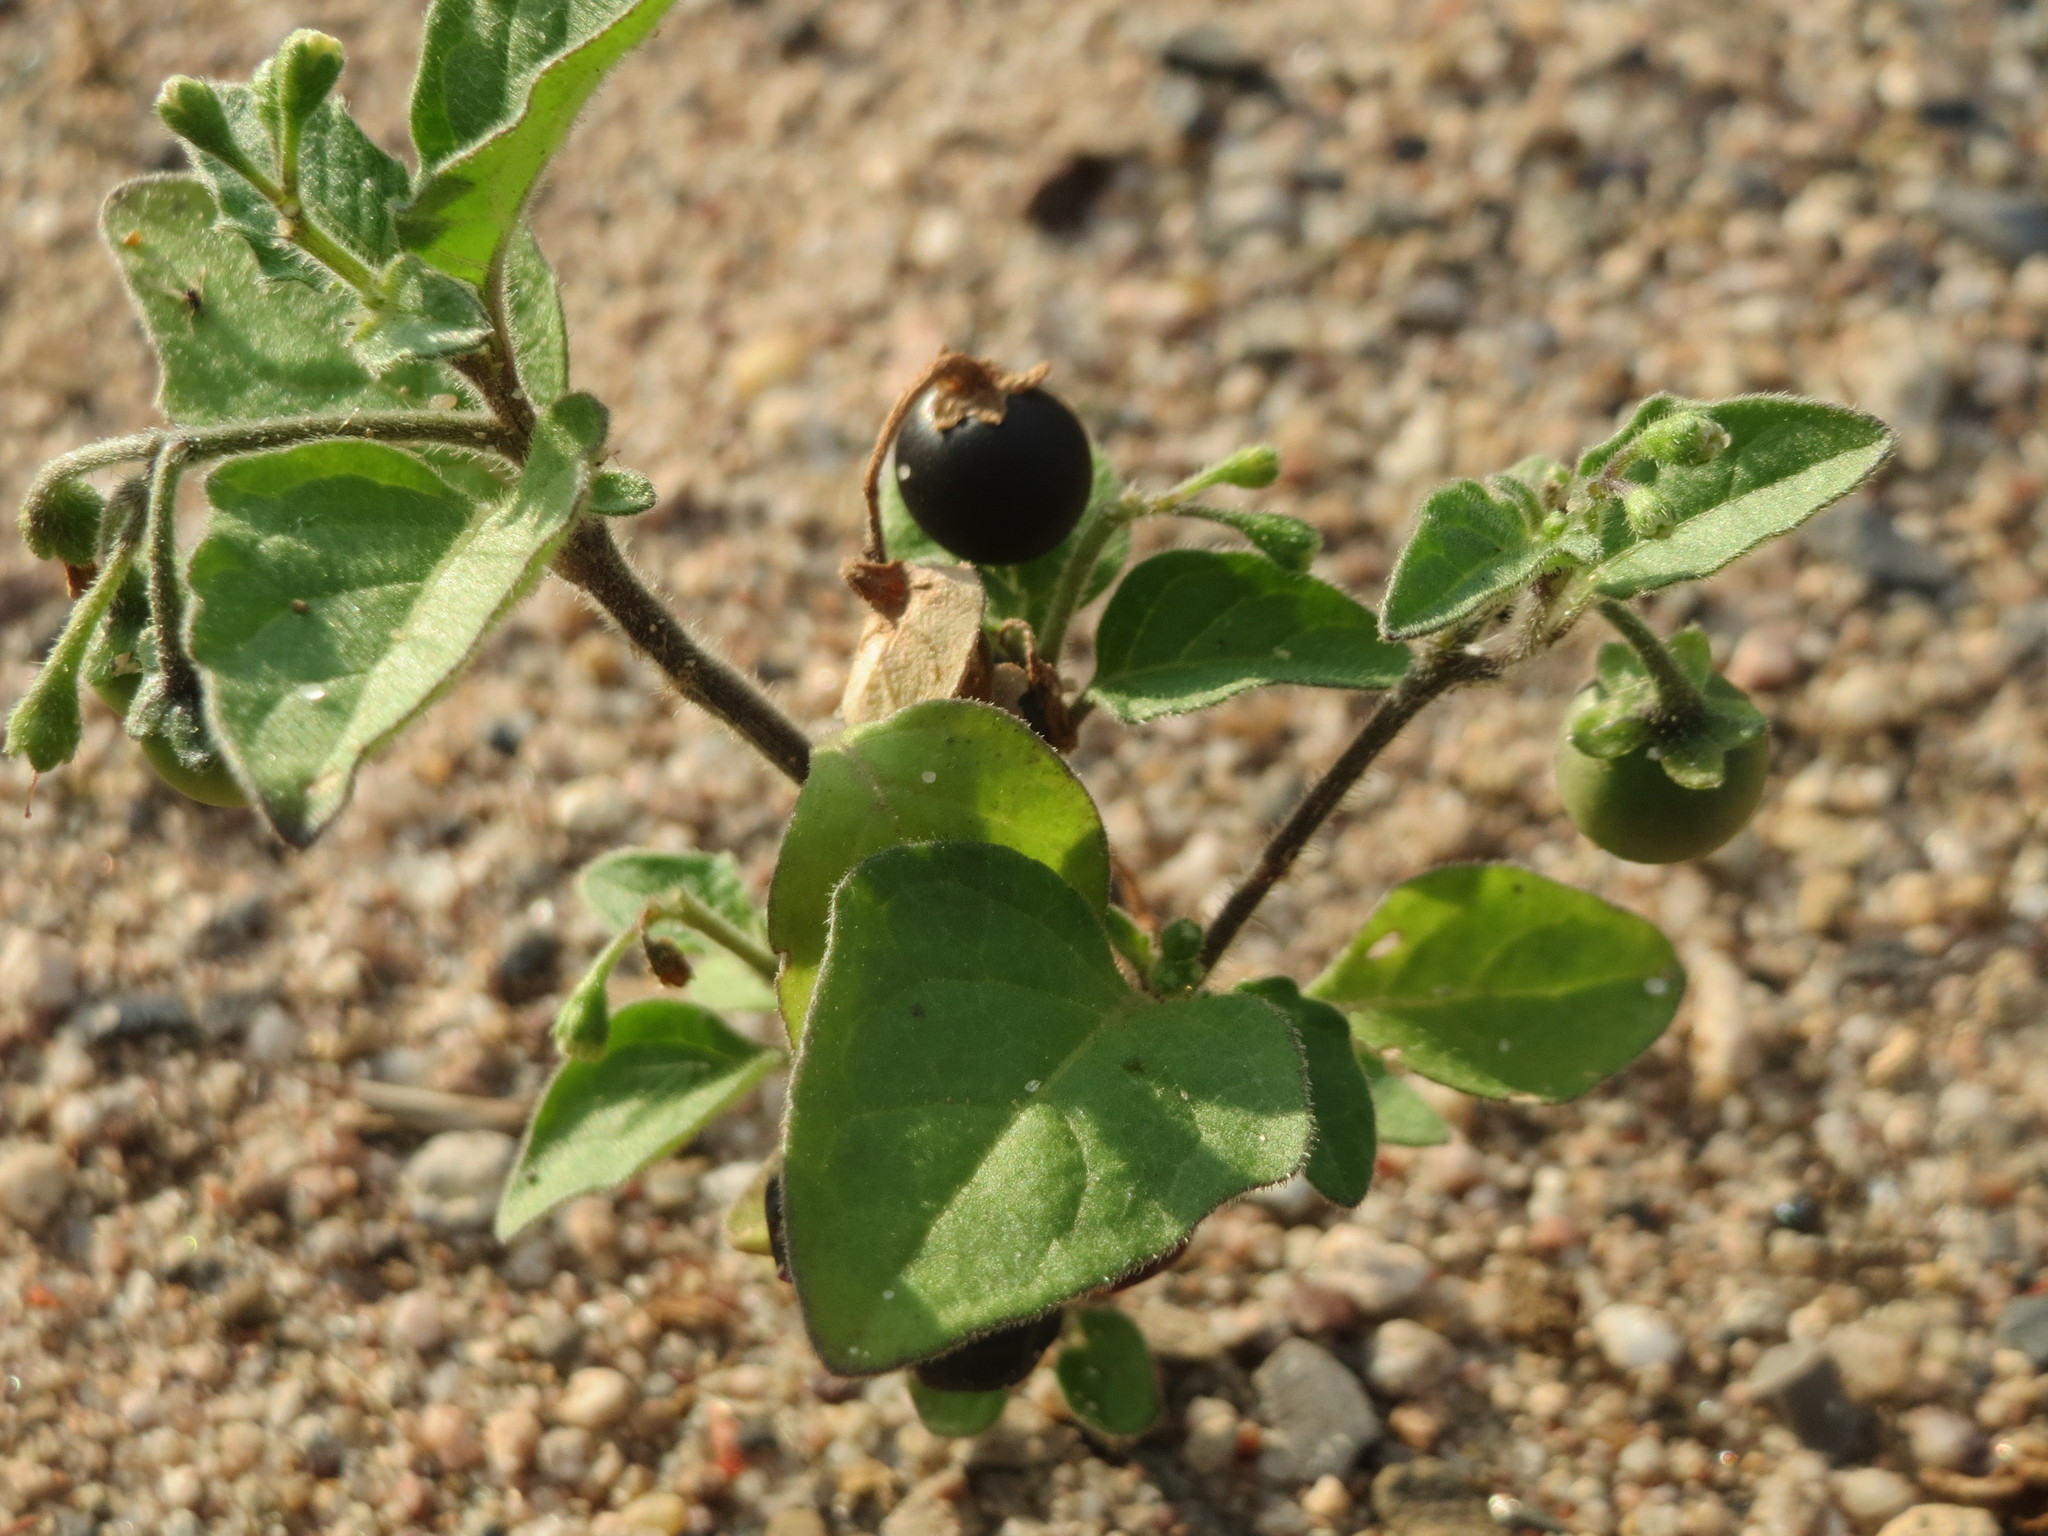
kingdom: Plantae
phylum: Tracheophyta
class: Magnoliopsida
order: Solanales
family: Solanaceae
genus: Solanum
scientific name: Solanum nigrum
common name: Black nightshade
